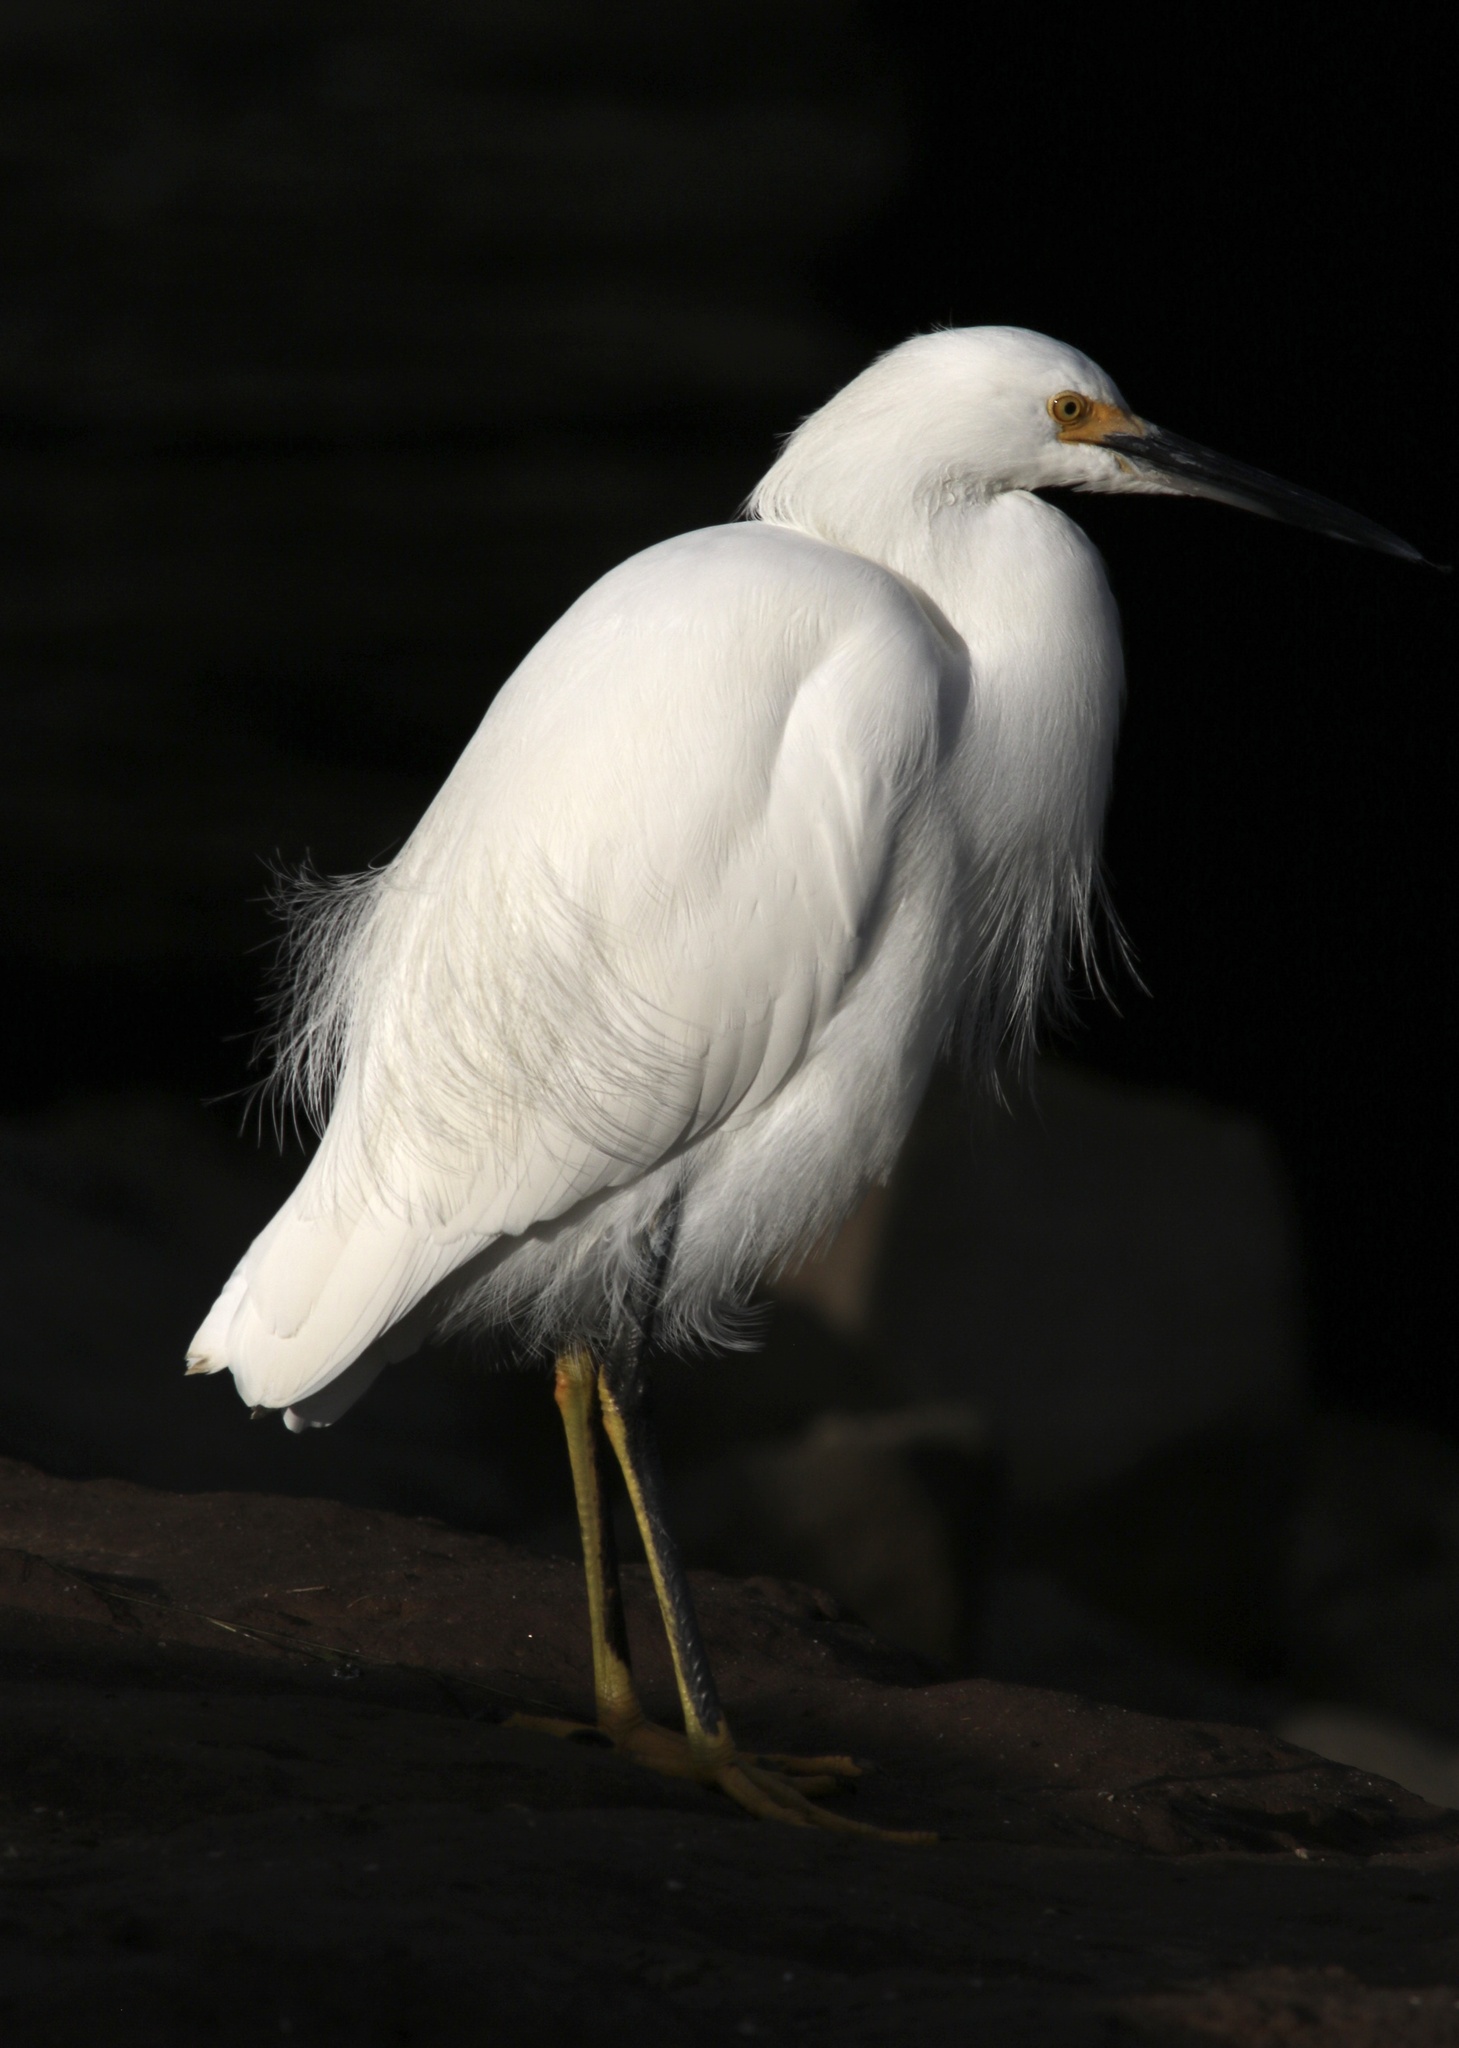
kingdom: Animalia
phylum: Chordata
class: Aves
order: Pelecaniformes
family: Ardeidae
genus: Egretta
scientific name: Egretta thula
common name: Snowy egret
